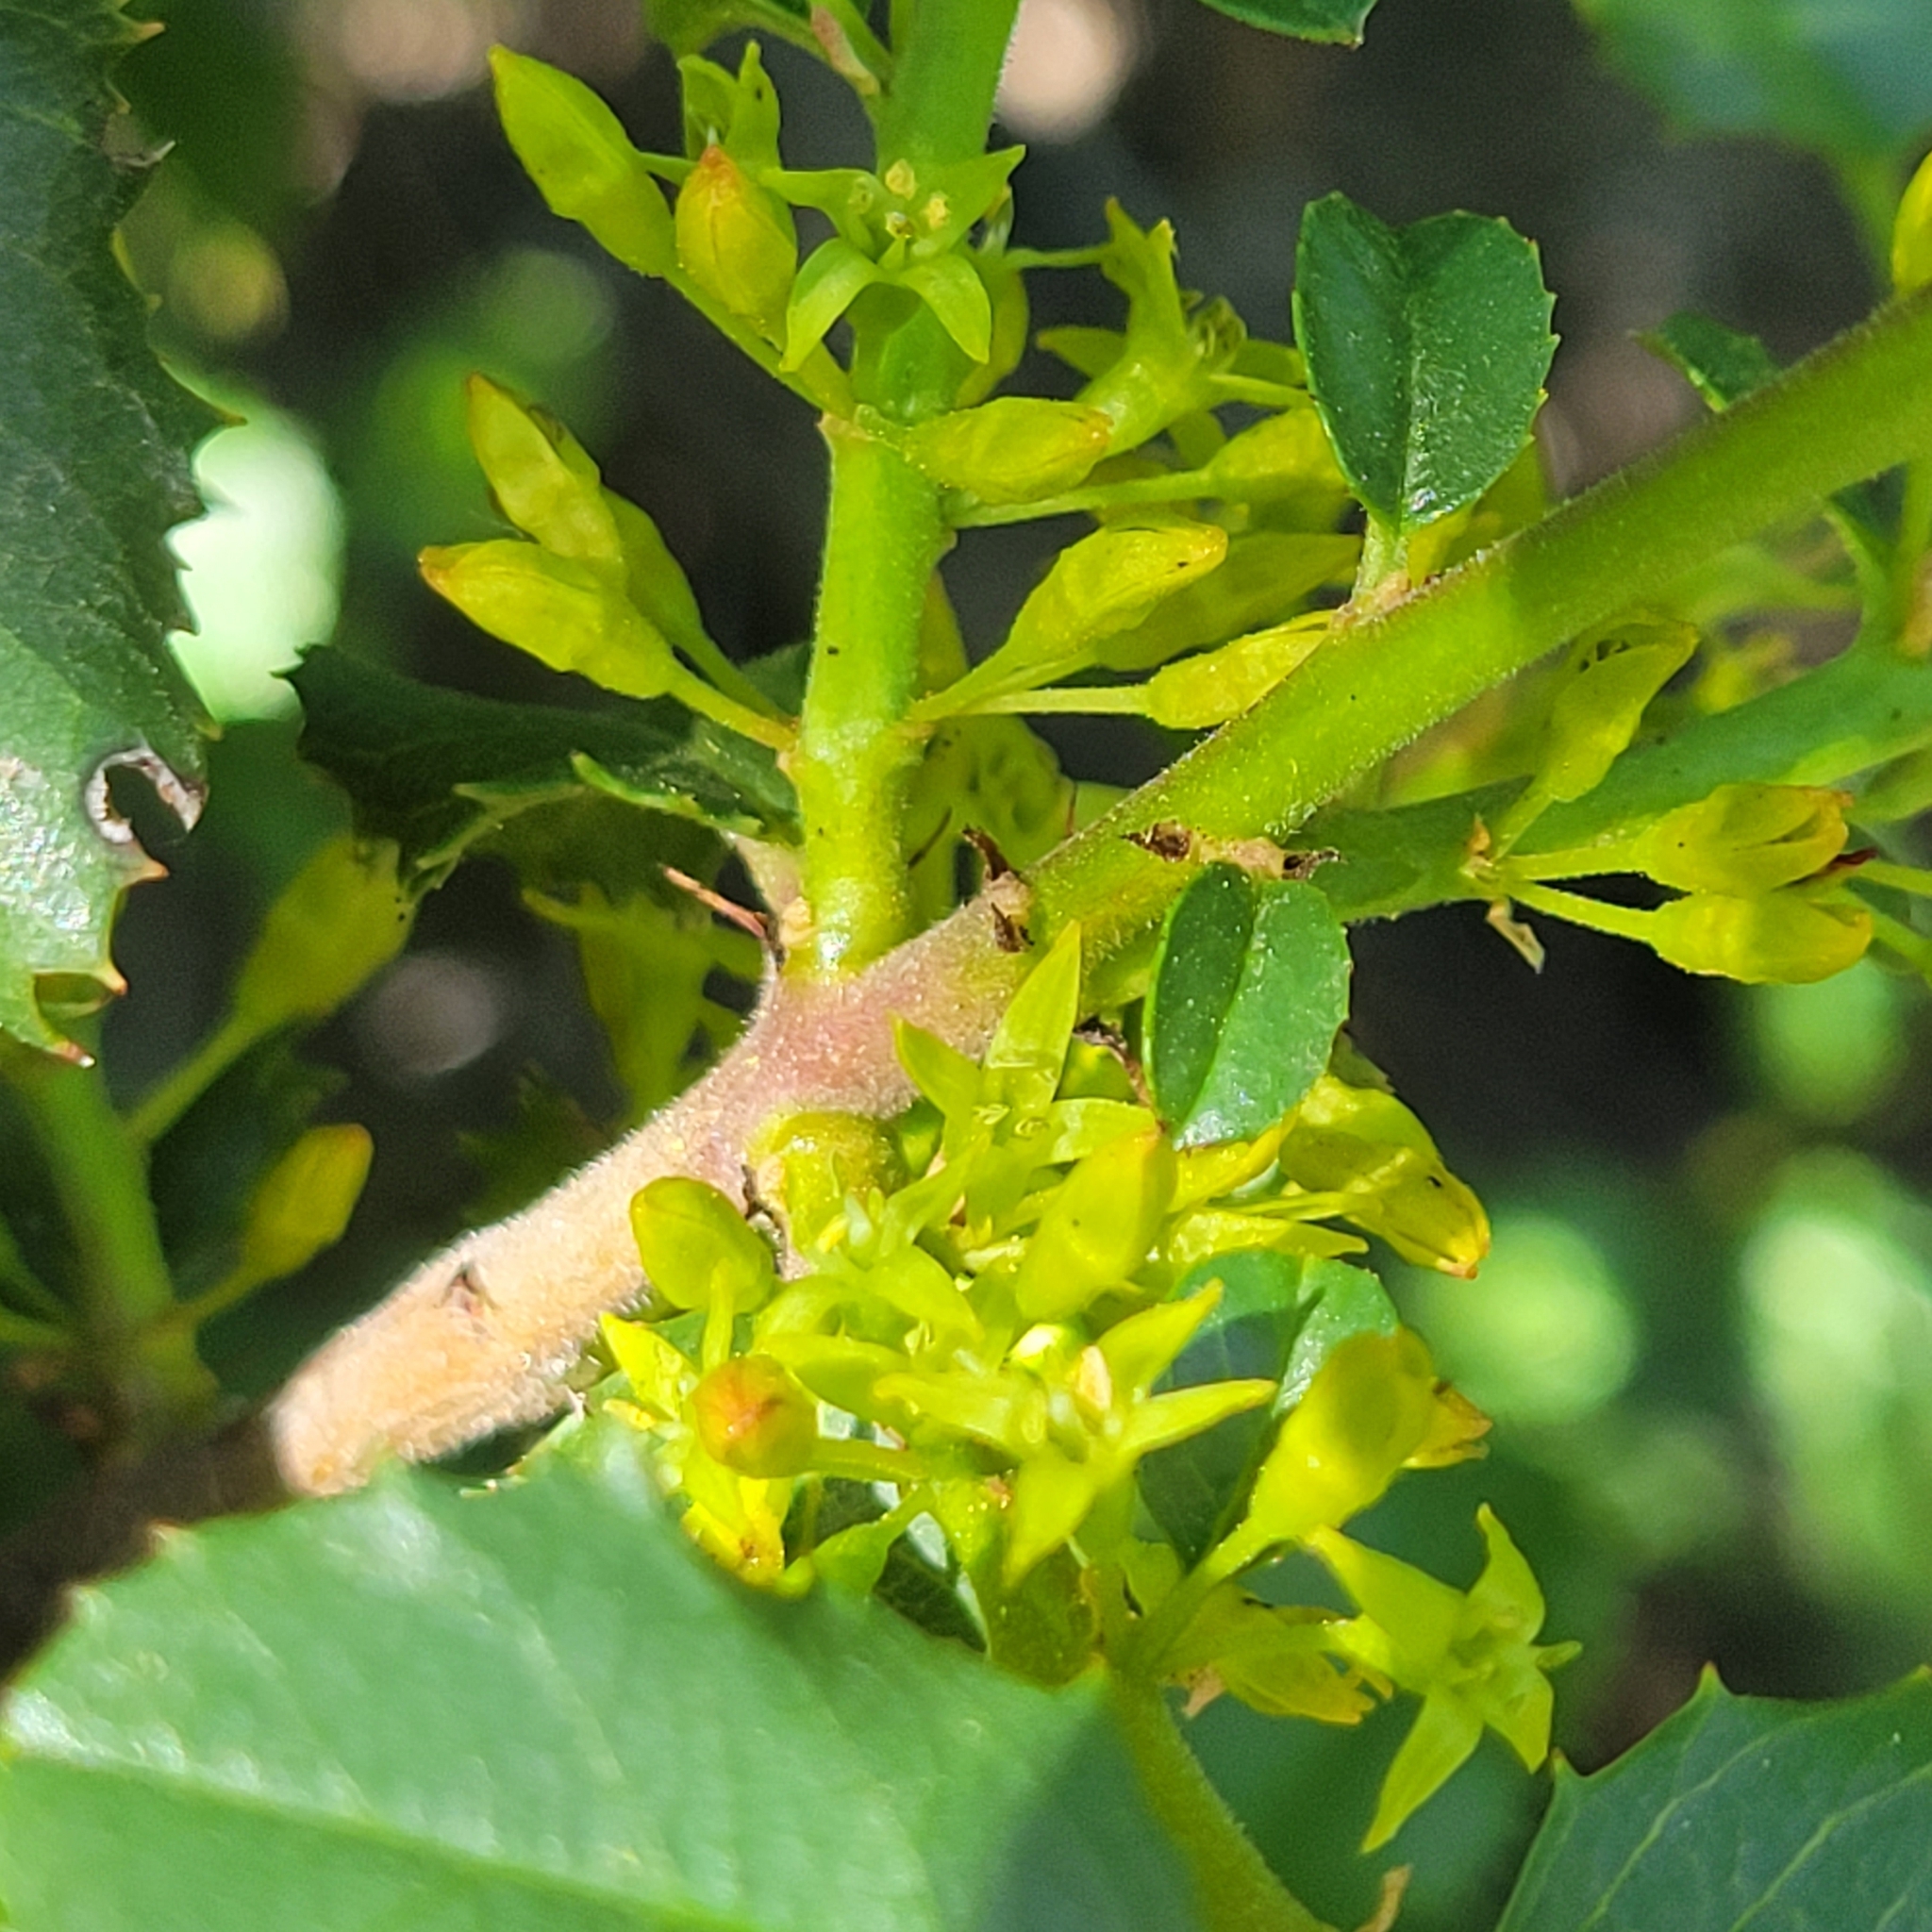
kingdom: Plantae
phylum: Tracheophyta
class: Magnoliopsida
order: Rosales
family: Rhamnaceae
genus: Endotropis
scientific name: Endotropis crocea
